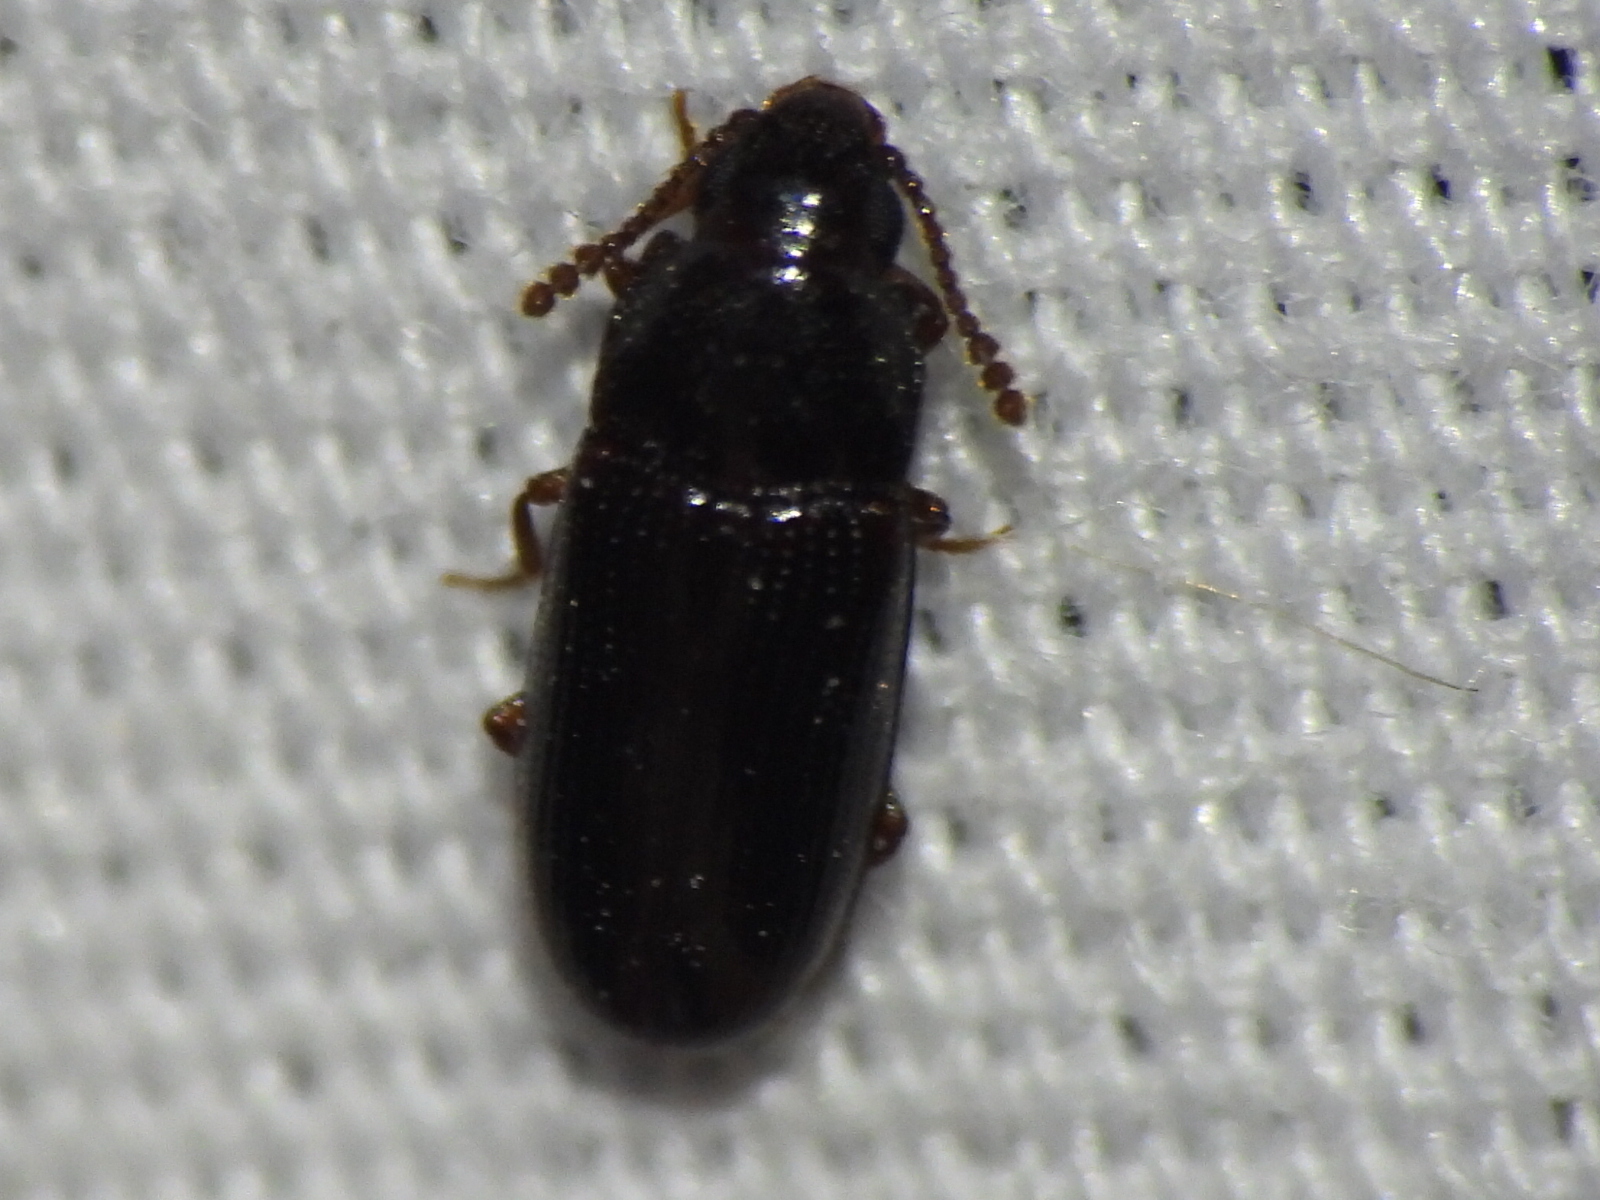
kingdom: Animalia
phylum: Arthropoda
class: Insecta
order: Coleoptera
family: Erotylidae
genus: Pharaxonotha
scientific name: Pharaxonotha kirschii
